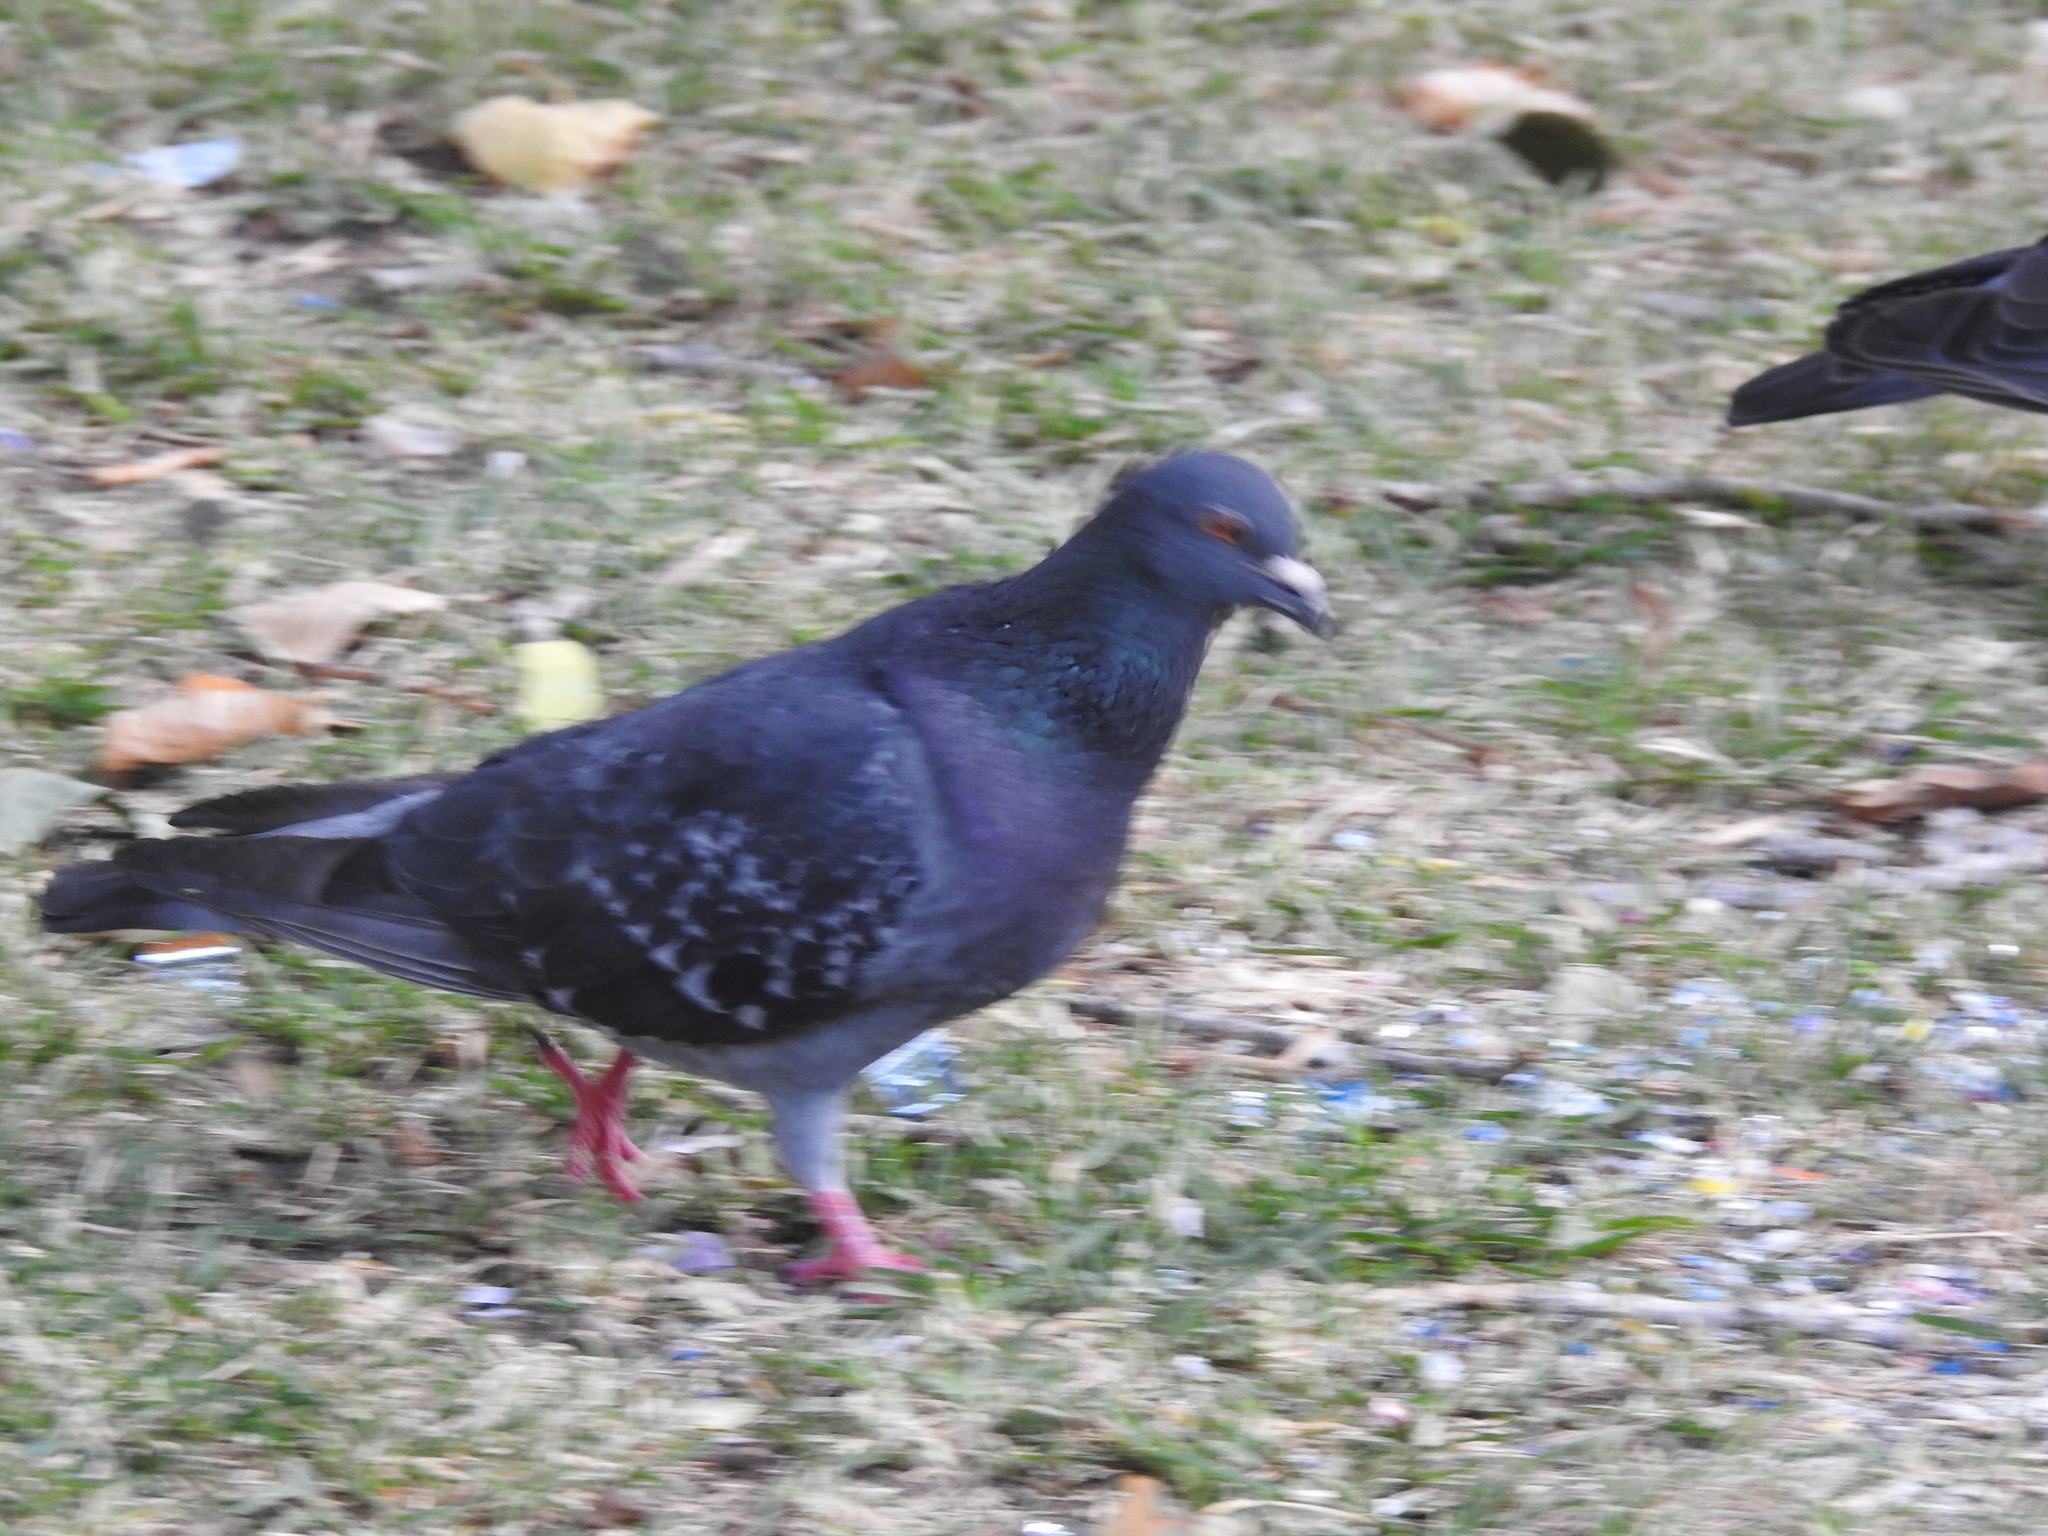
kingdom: Animalia
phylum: Chordata
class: Aves
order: Columbiformes
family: Columbidae
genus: Columba
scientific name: Columba livia
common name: Rock pigeon
